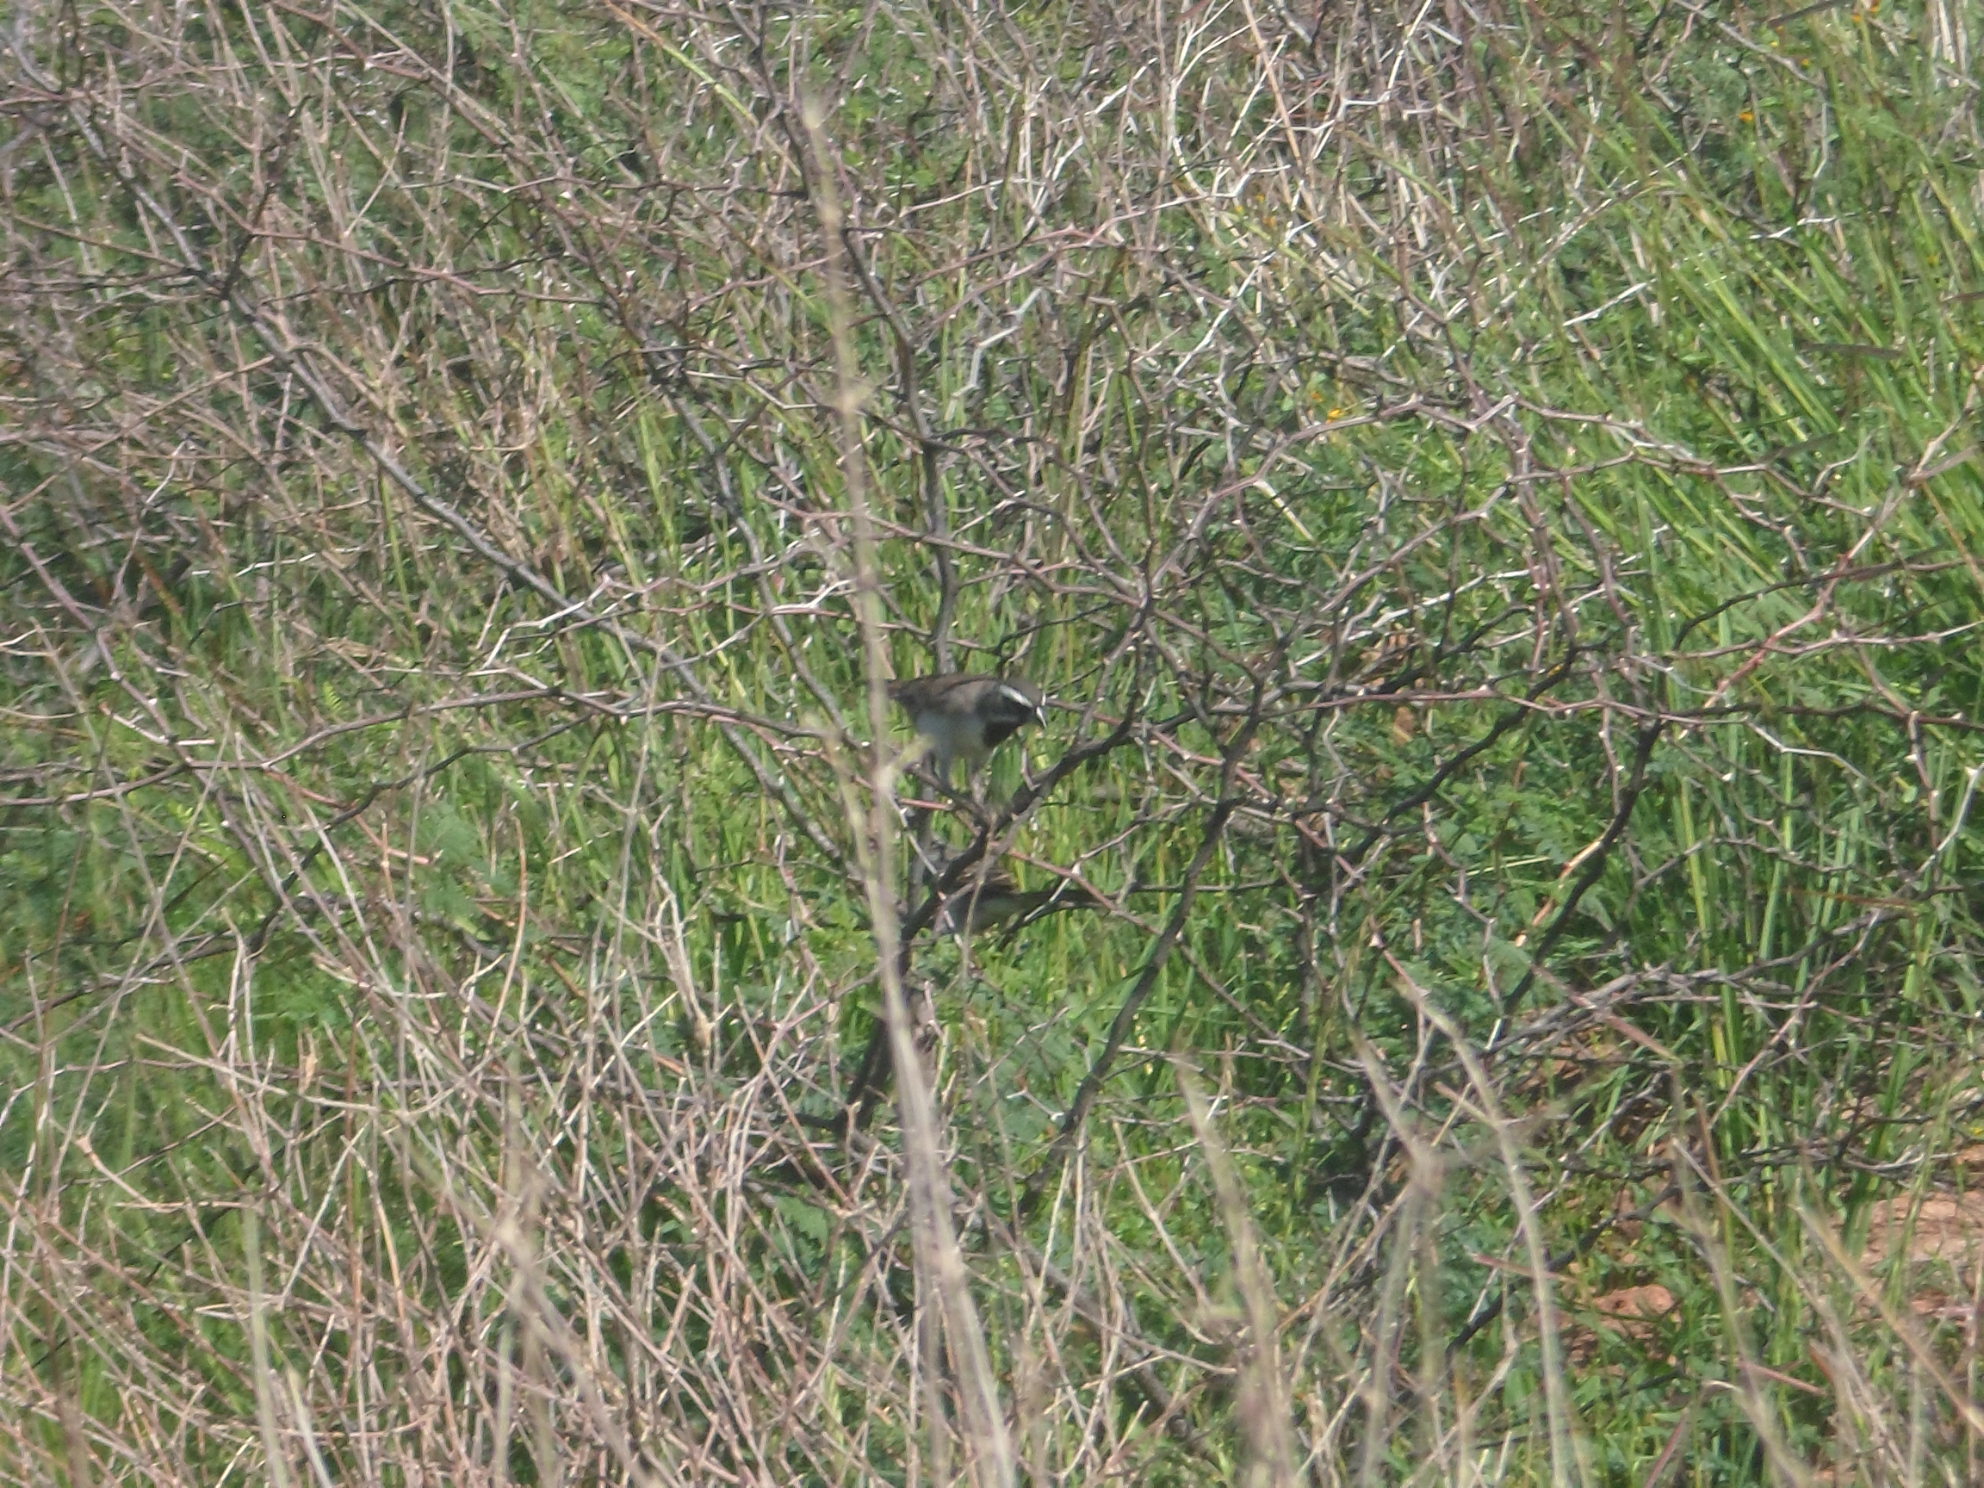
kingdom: Animalia
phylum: Chordata
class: Aves
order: Passeriformes
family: Passerellidae
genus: Amphispiza
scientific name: Amphispiza bilineata
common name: Black-throated sparrow
